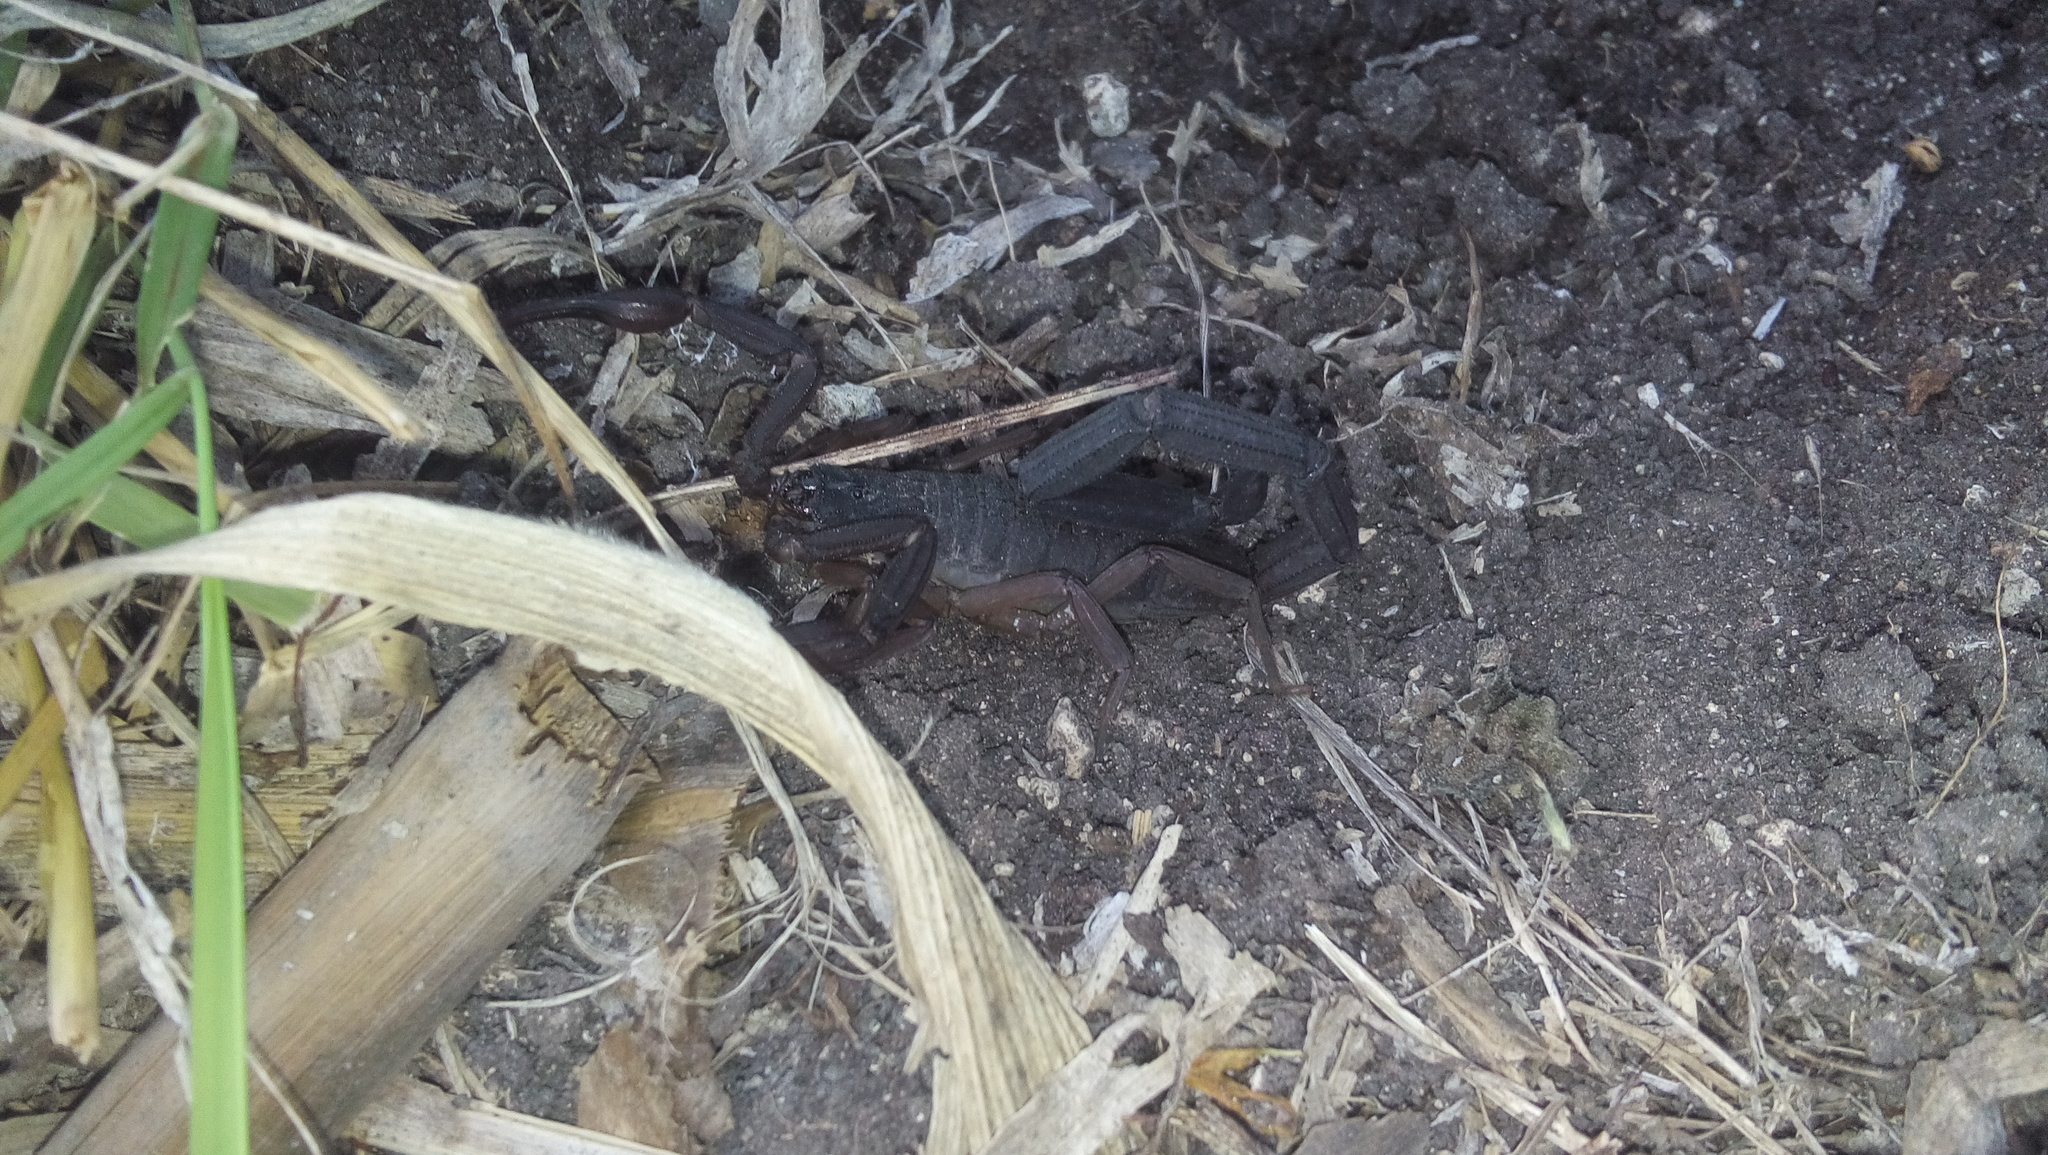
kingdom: Animalia
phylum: Arthropoda
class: Arachnida
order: Scorpiones
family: Buthidae
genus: Centruroides
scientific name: Centruroides gracilis
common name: Scorpions
